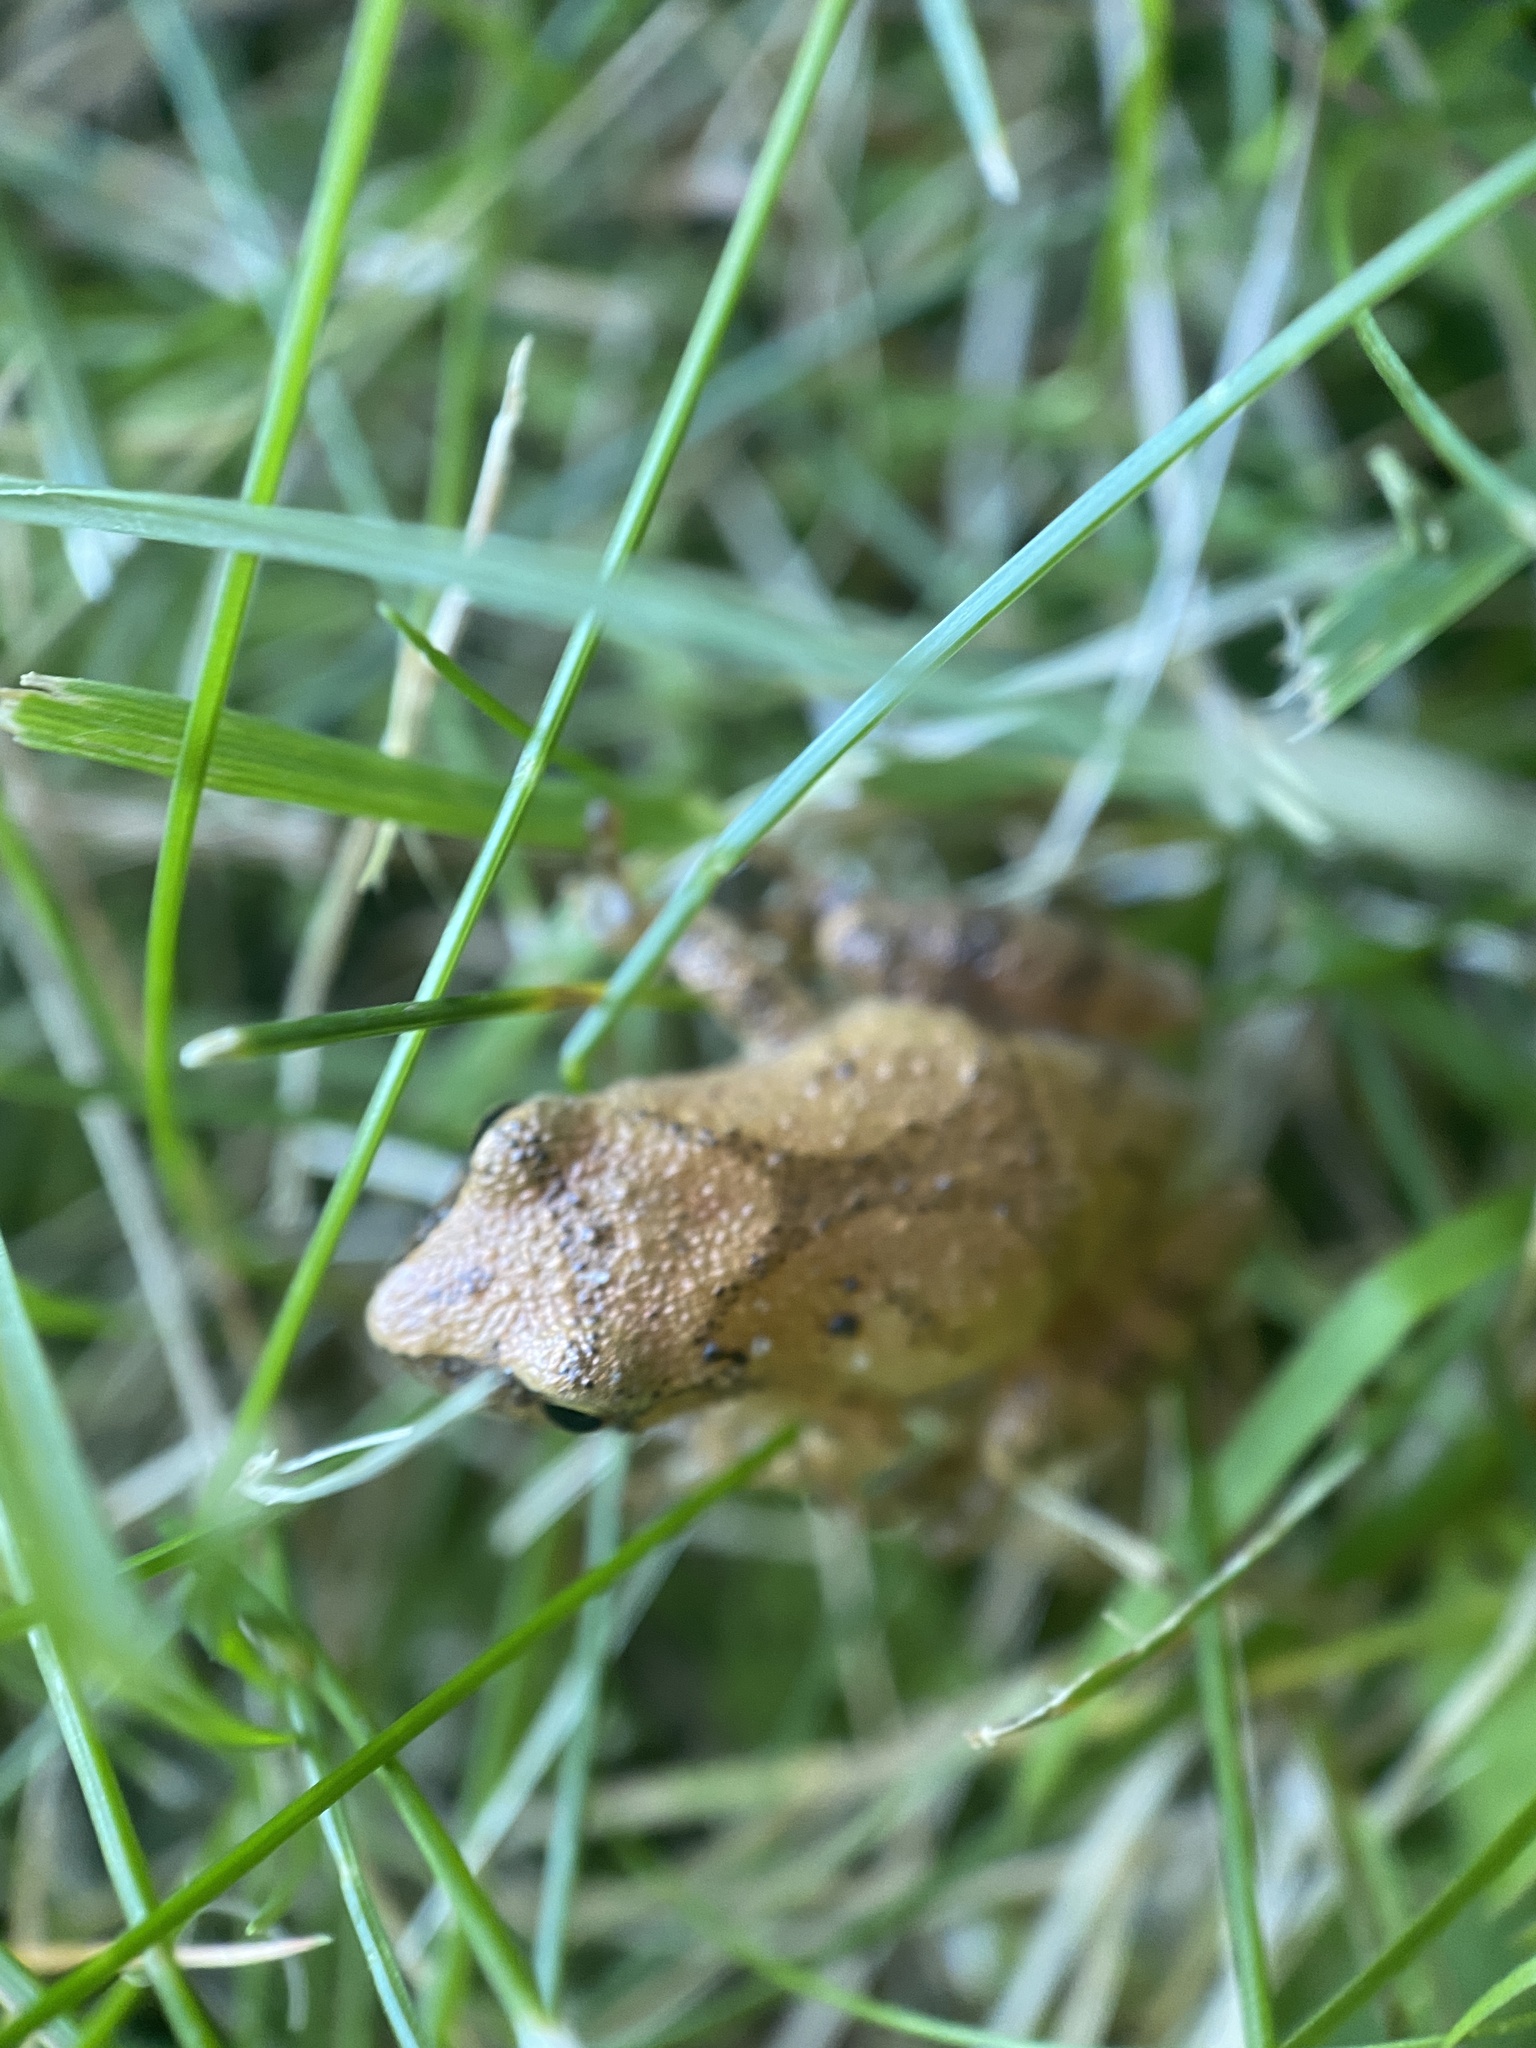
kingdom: Animalia
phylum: Chordata
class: Amphibia
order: Anura
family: Hylidae
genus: Pseudacris
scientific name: Pseudacris crucifer
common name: Spring peeper
